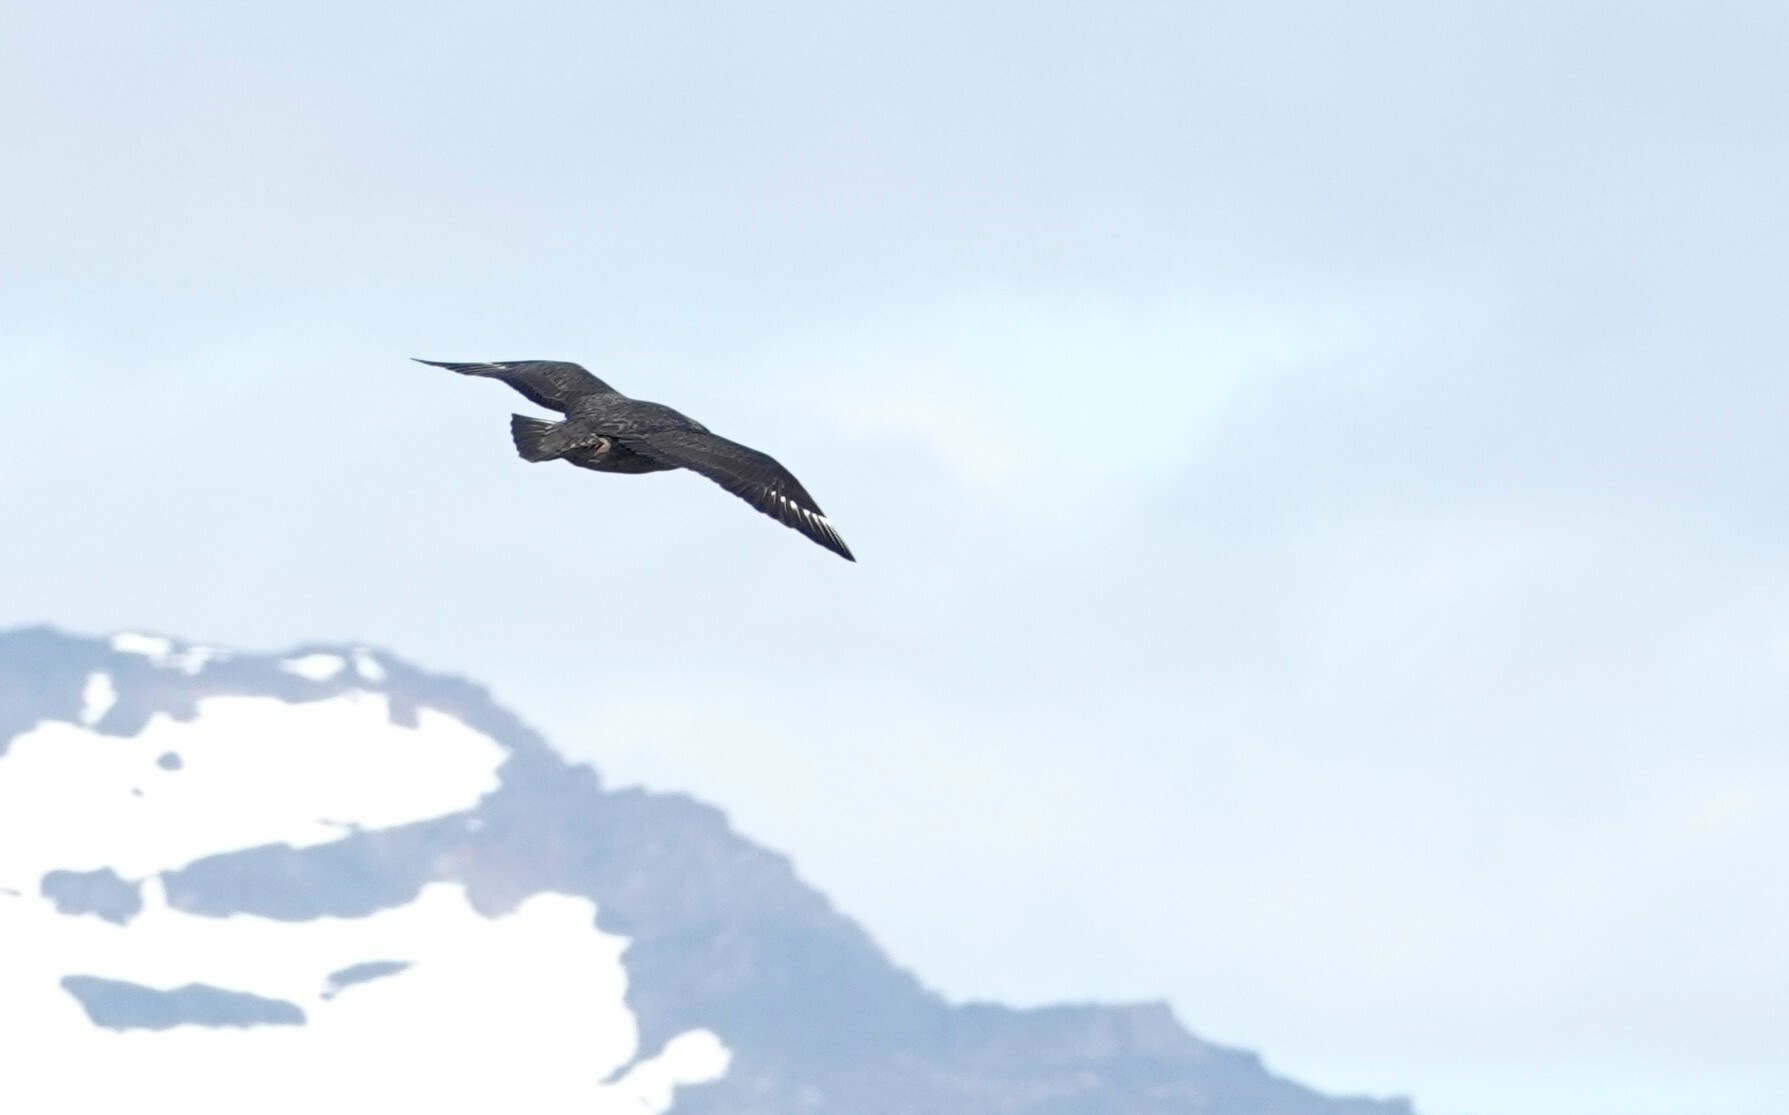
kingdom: Animalia
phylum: Chordata
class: Aves
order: Charadriiformes
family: Stercorariidae
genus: Stercorarius
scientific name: Stercorarius chilensis
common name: Chilean skua
